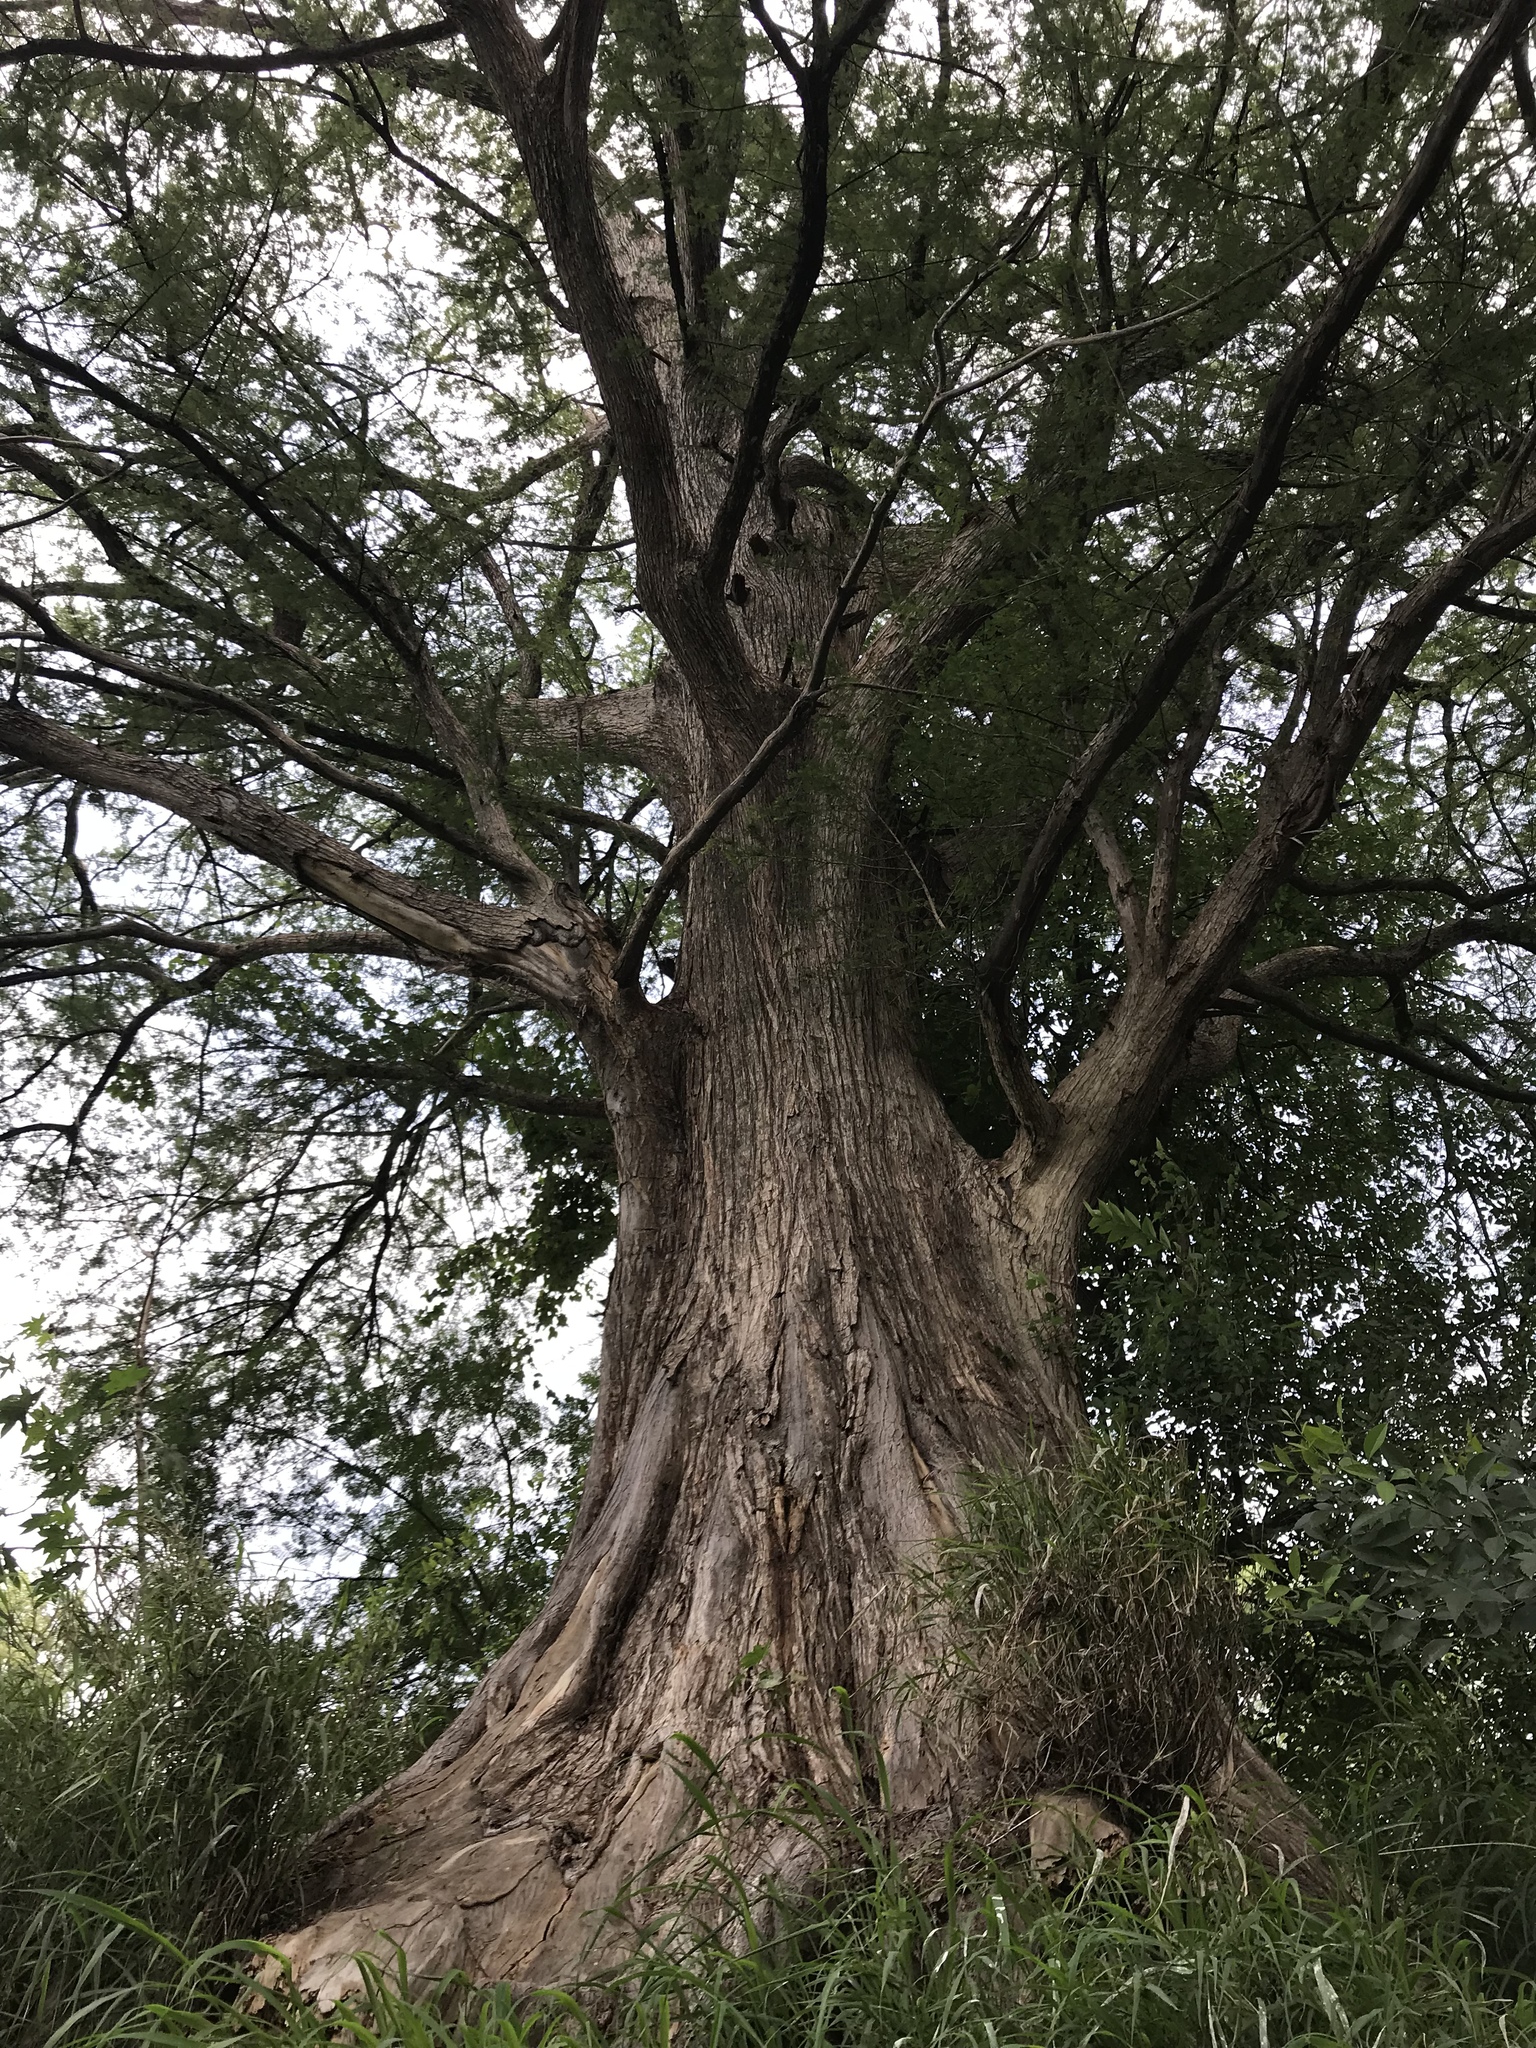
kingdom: Plantae
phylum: Tracheophyta
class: Pinopsida
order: Pinales
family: Cupressaceae
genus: Taxodium
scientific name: Taxodium mucronatum
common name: Montezume bald cypress
